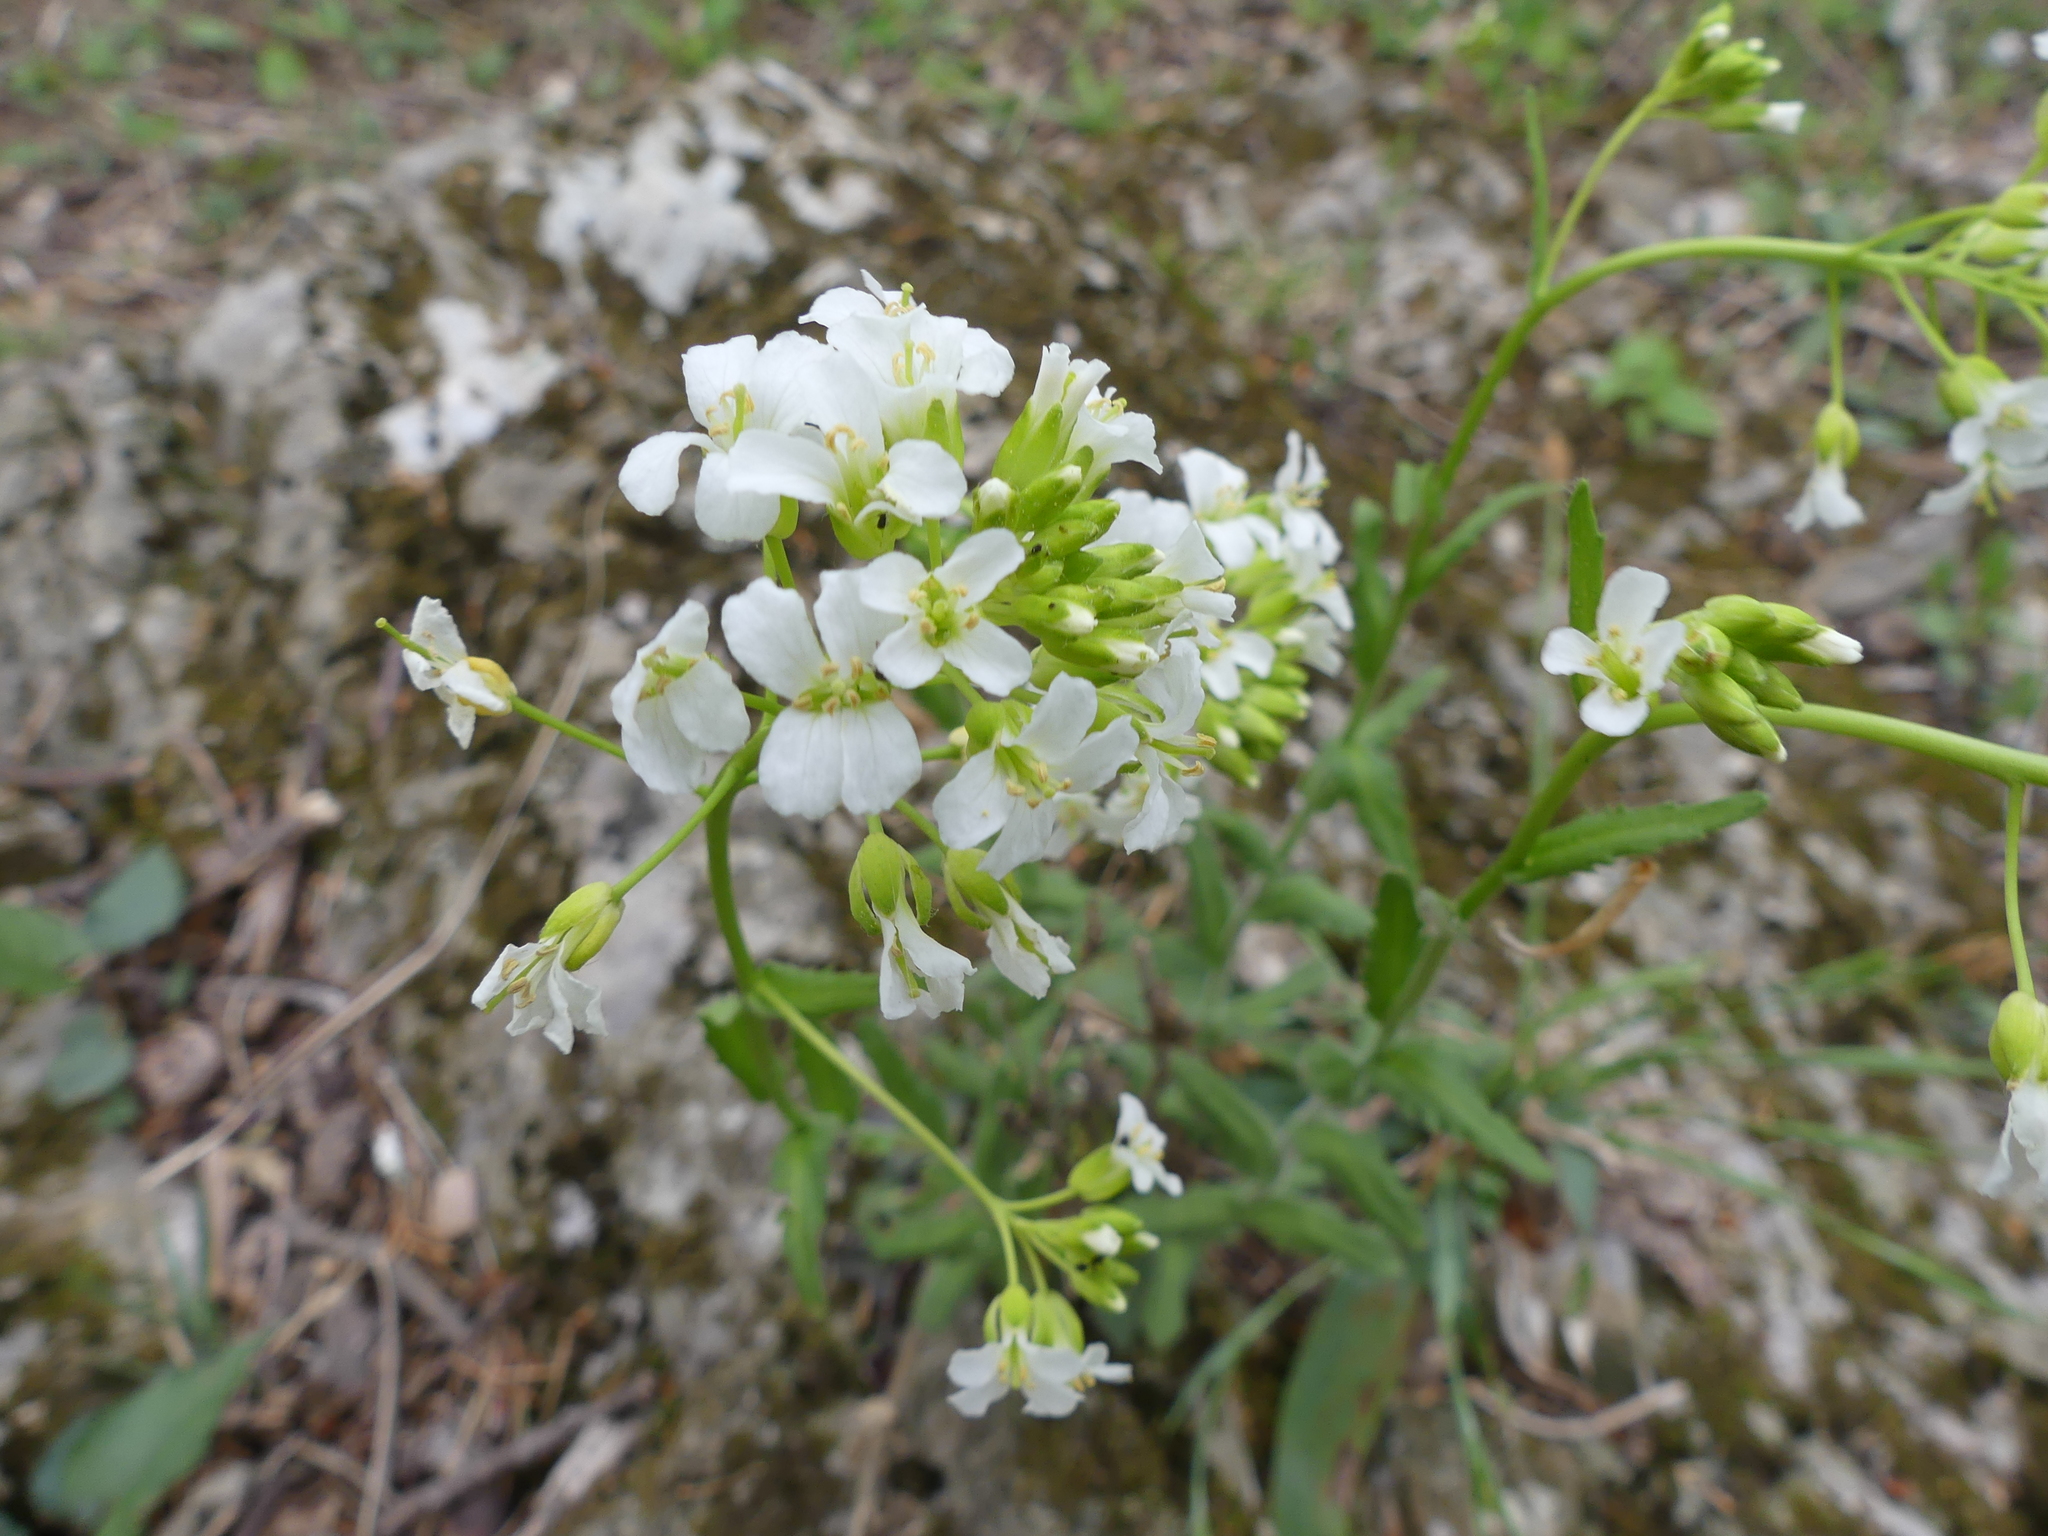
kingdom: Plantae
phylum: Tracheophyta
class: Magnoliopsida
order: Brassicales
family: Brassicaceae
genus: Arabis
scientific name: Arabis patens
